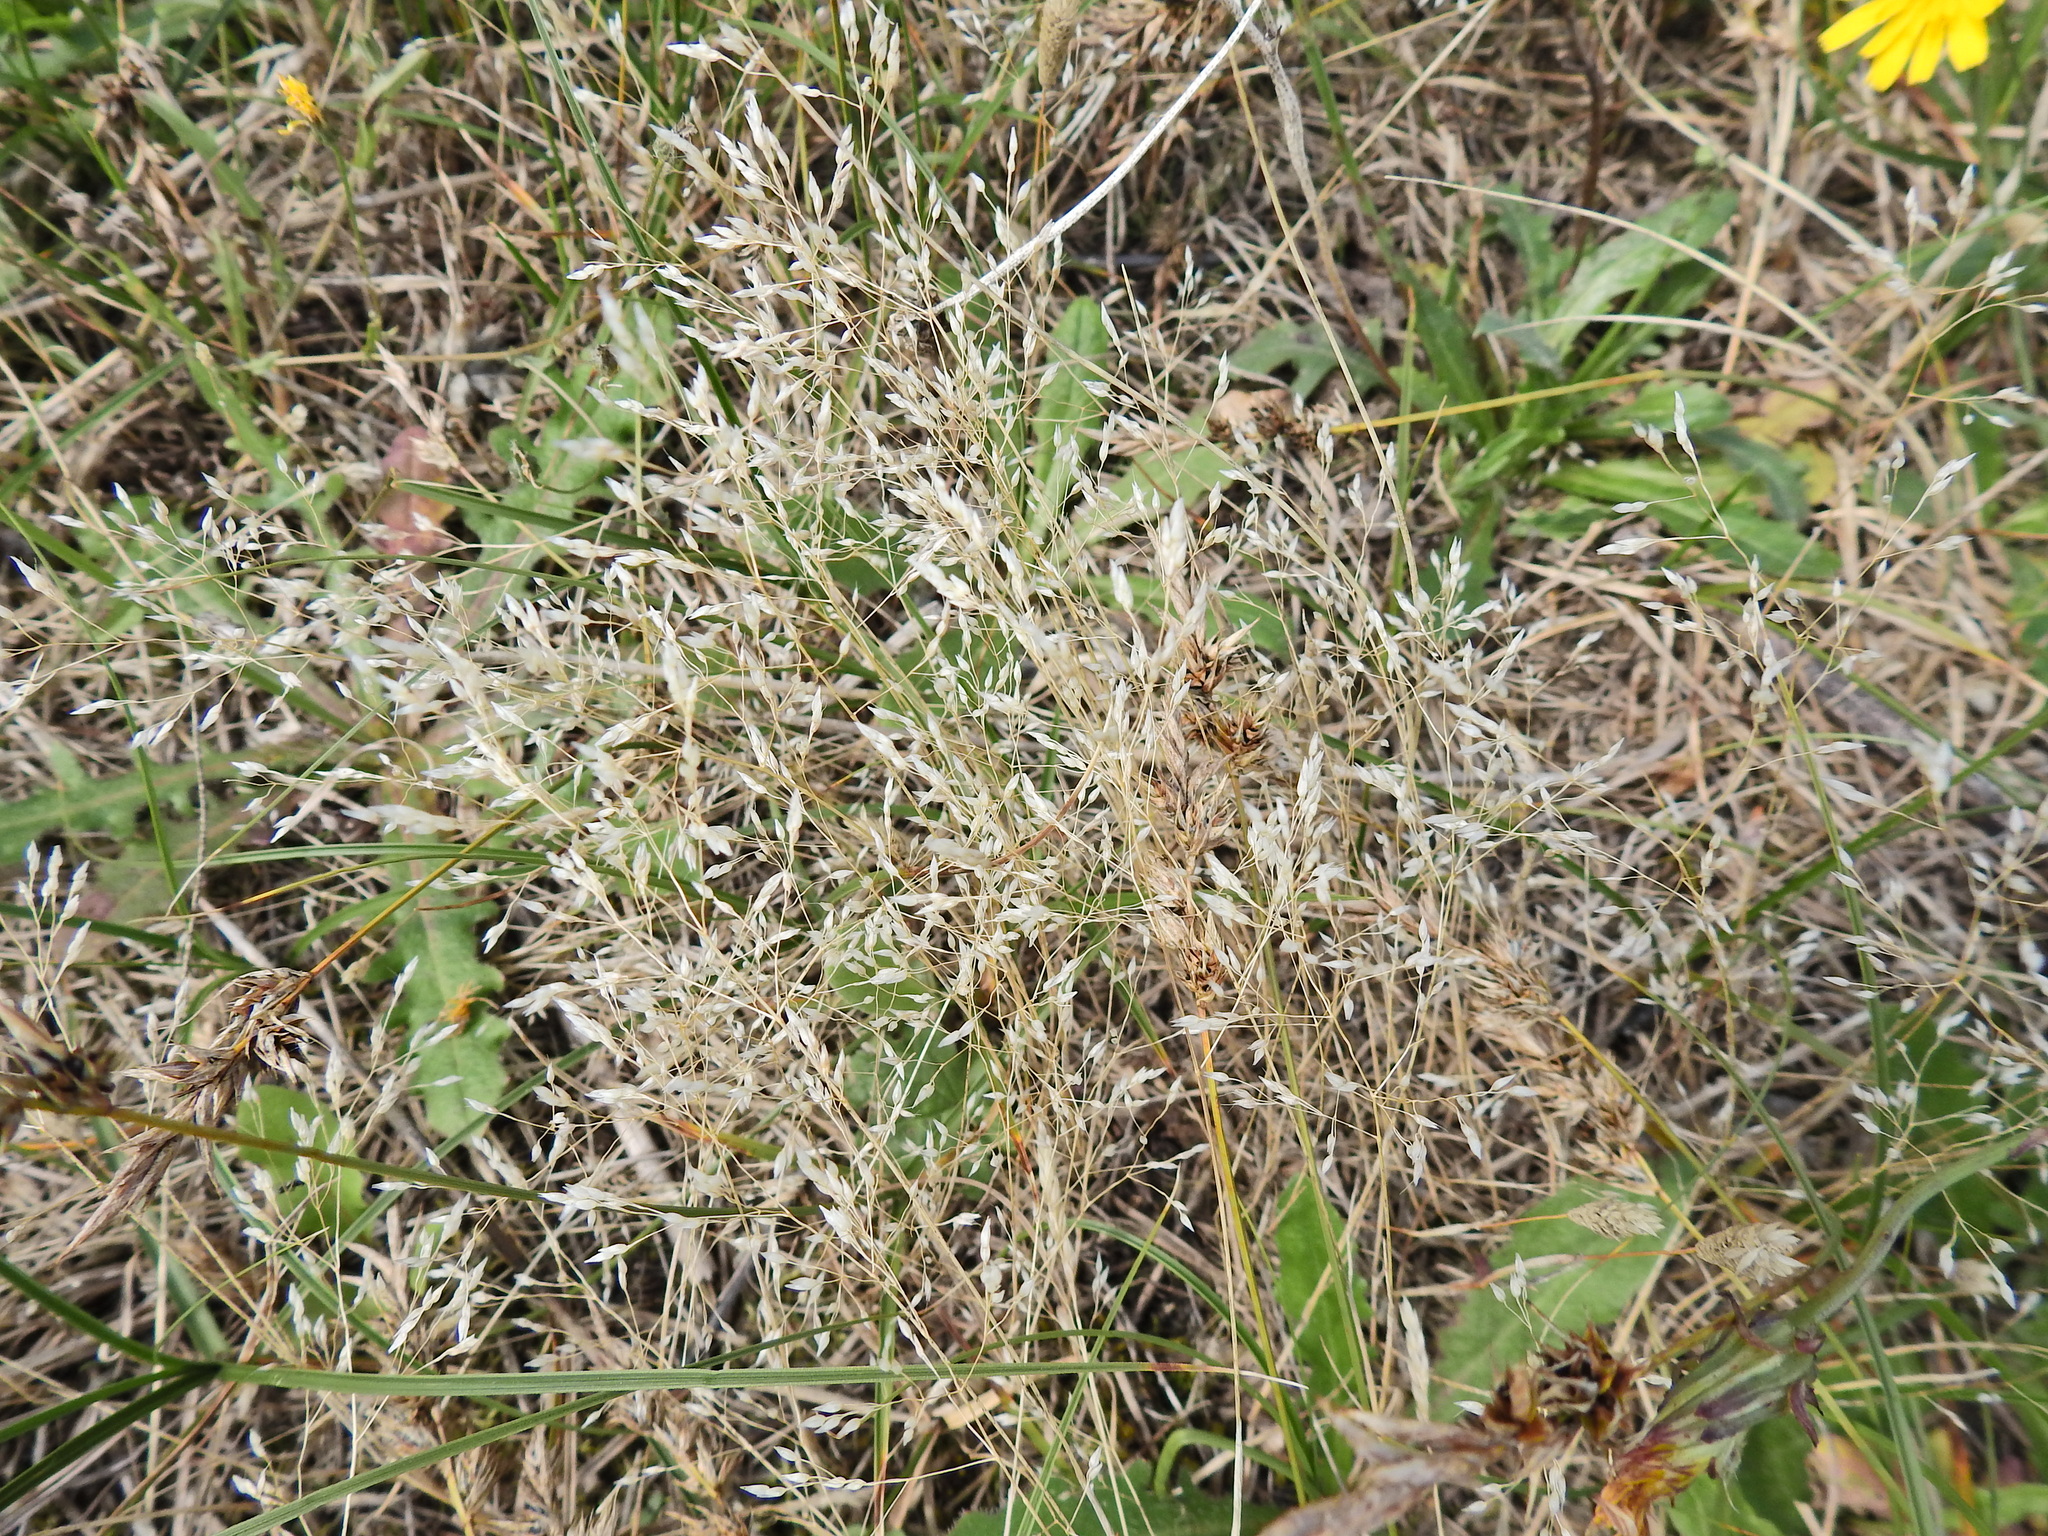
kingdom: Plantae
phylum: Tracheophyta
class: Liliopsida
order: Poales
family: Poaceae
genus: Aira
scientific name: Aira caryophyllea
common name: Silver hairgrass
